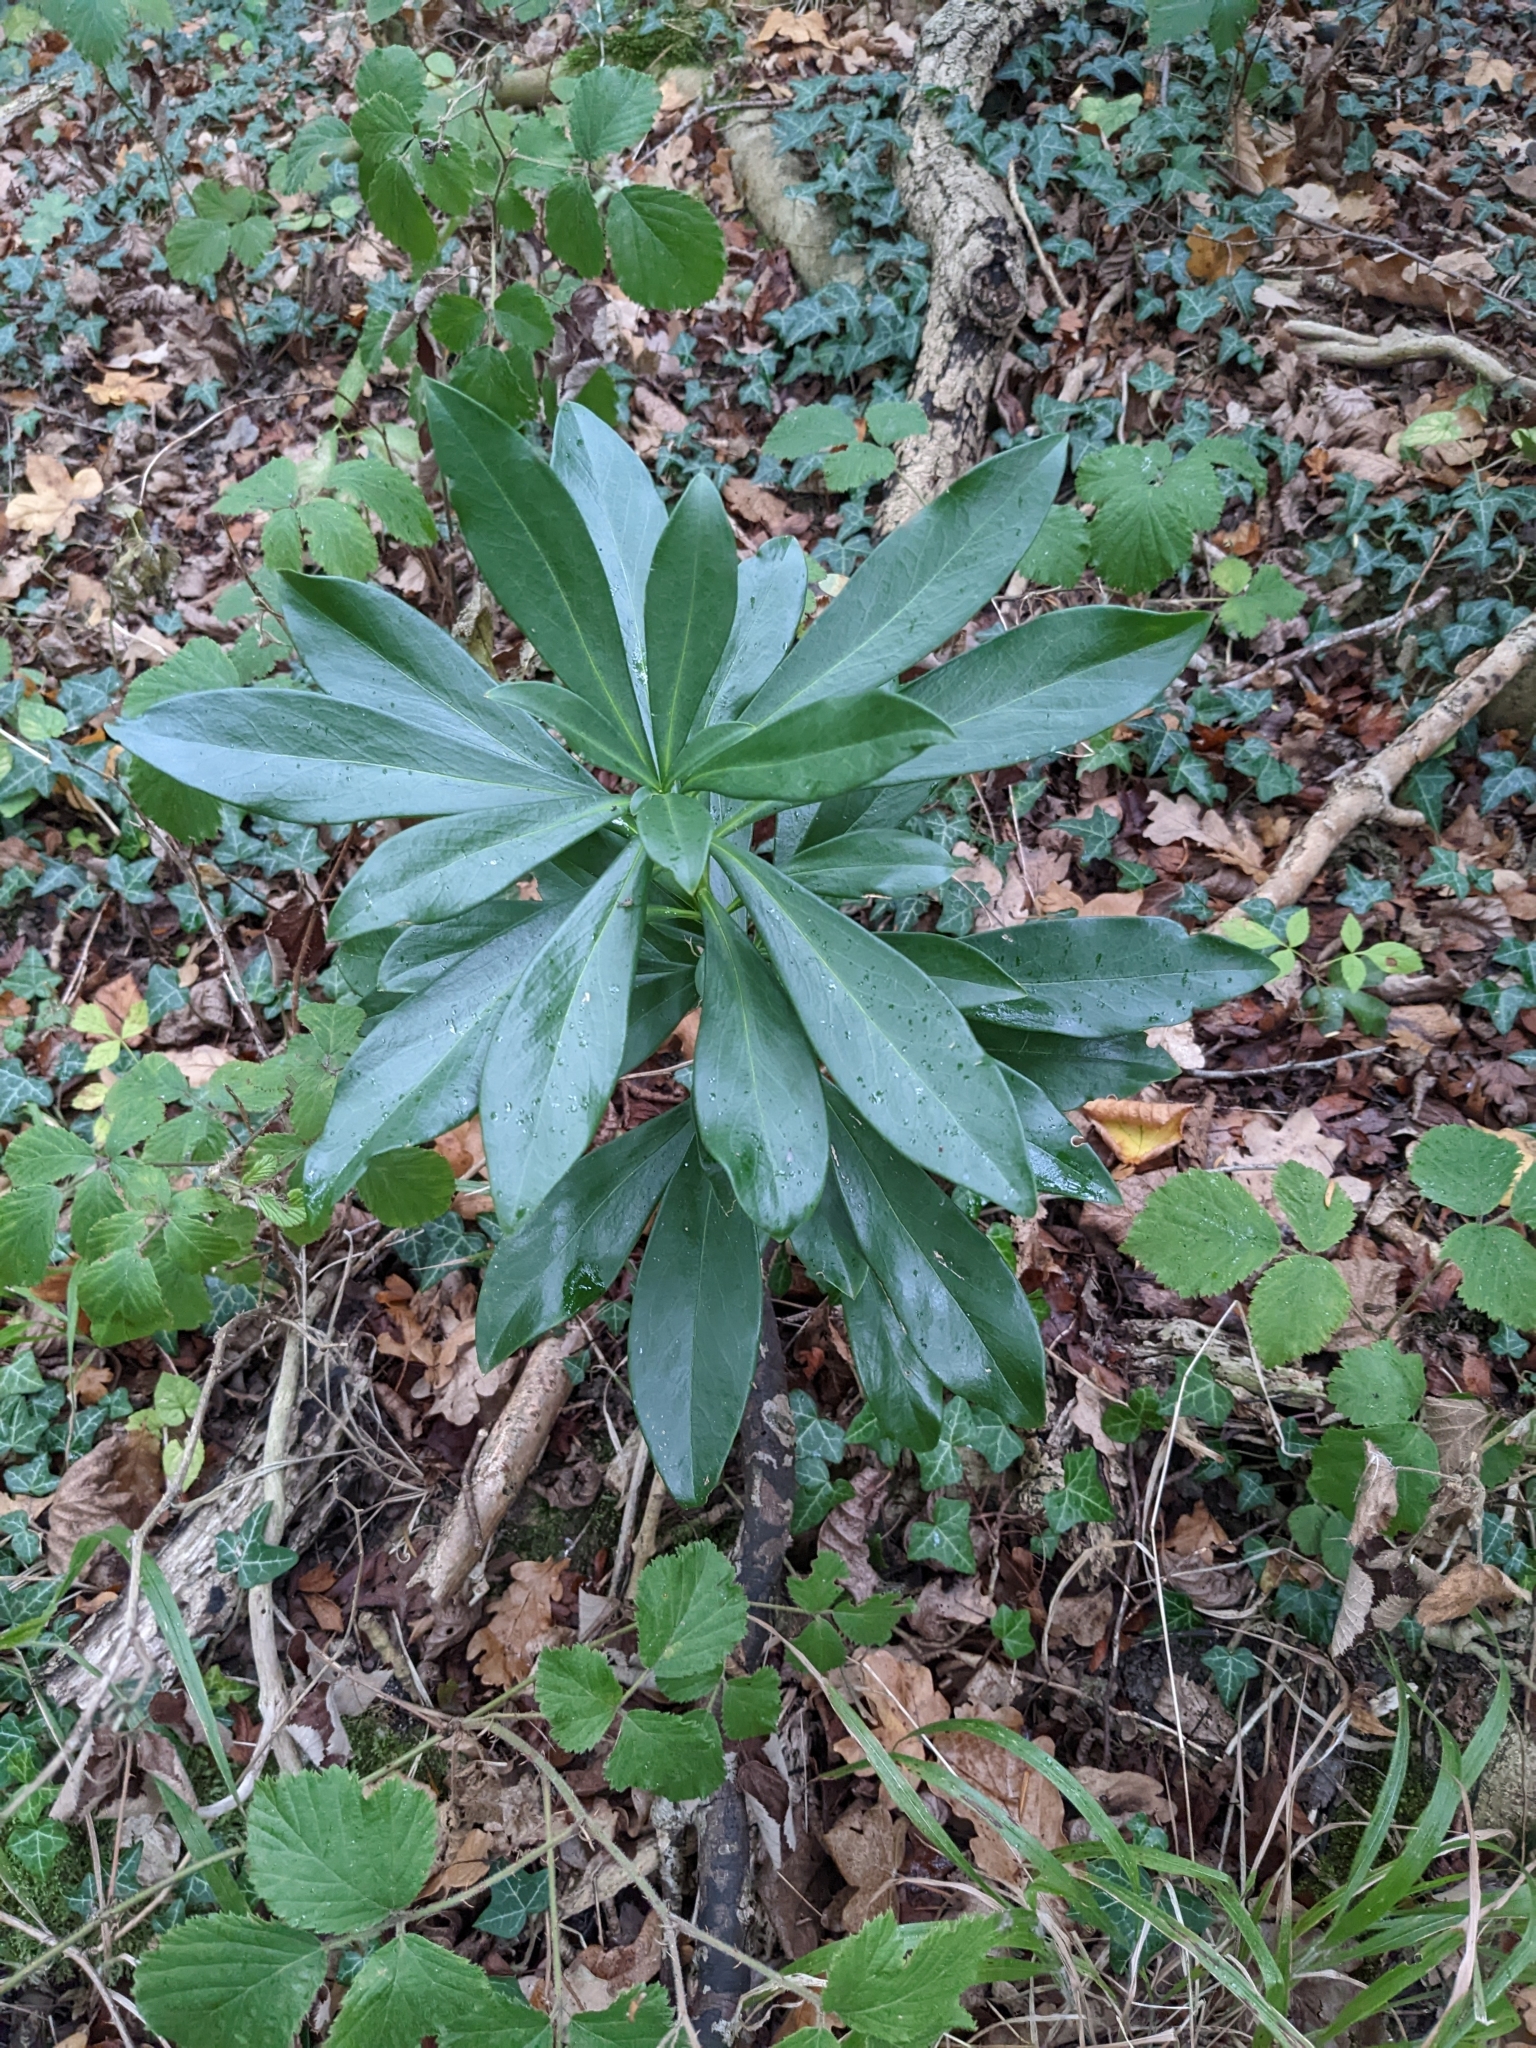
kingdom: Plantae
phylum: Tracheophyta
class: Magnoliopsida
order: Malvales
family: Thymelaeaceae
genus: Daphne
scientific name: Daphne laureola
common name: Spurge-laurel
